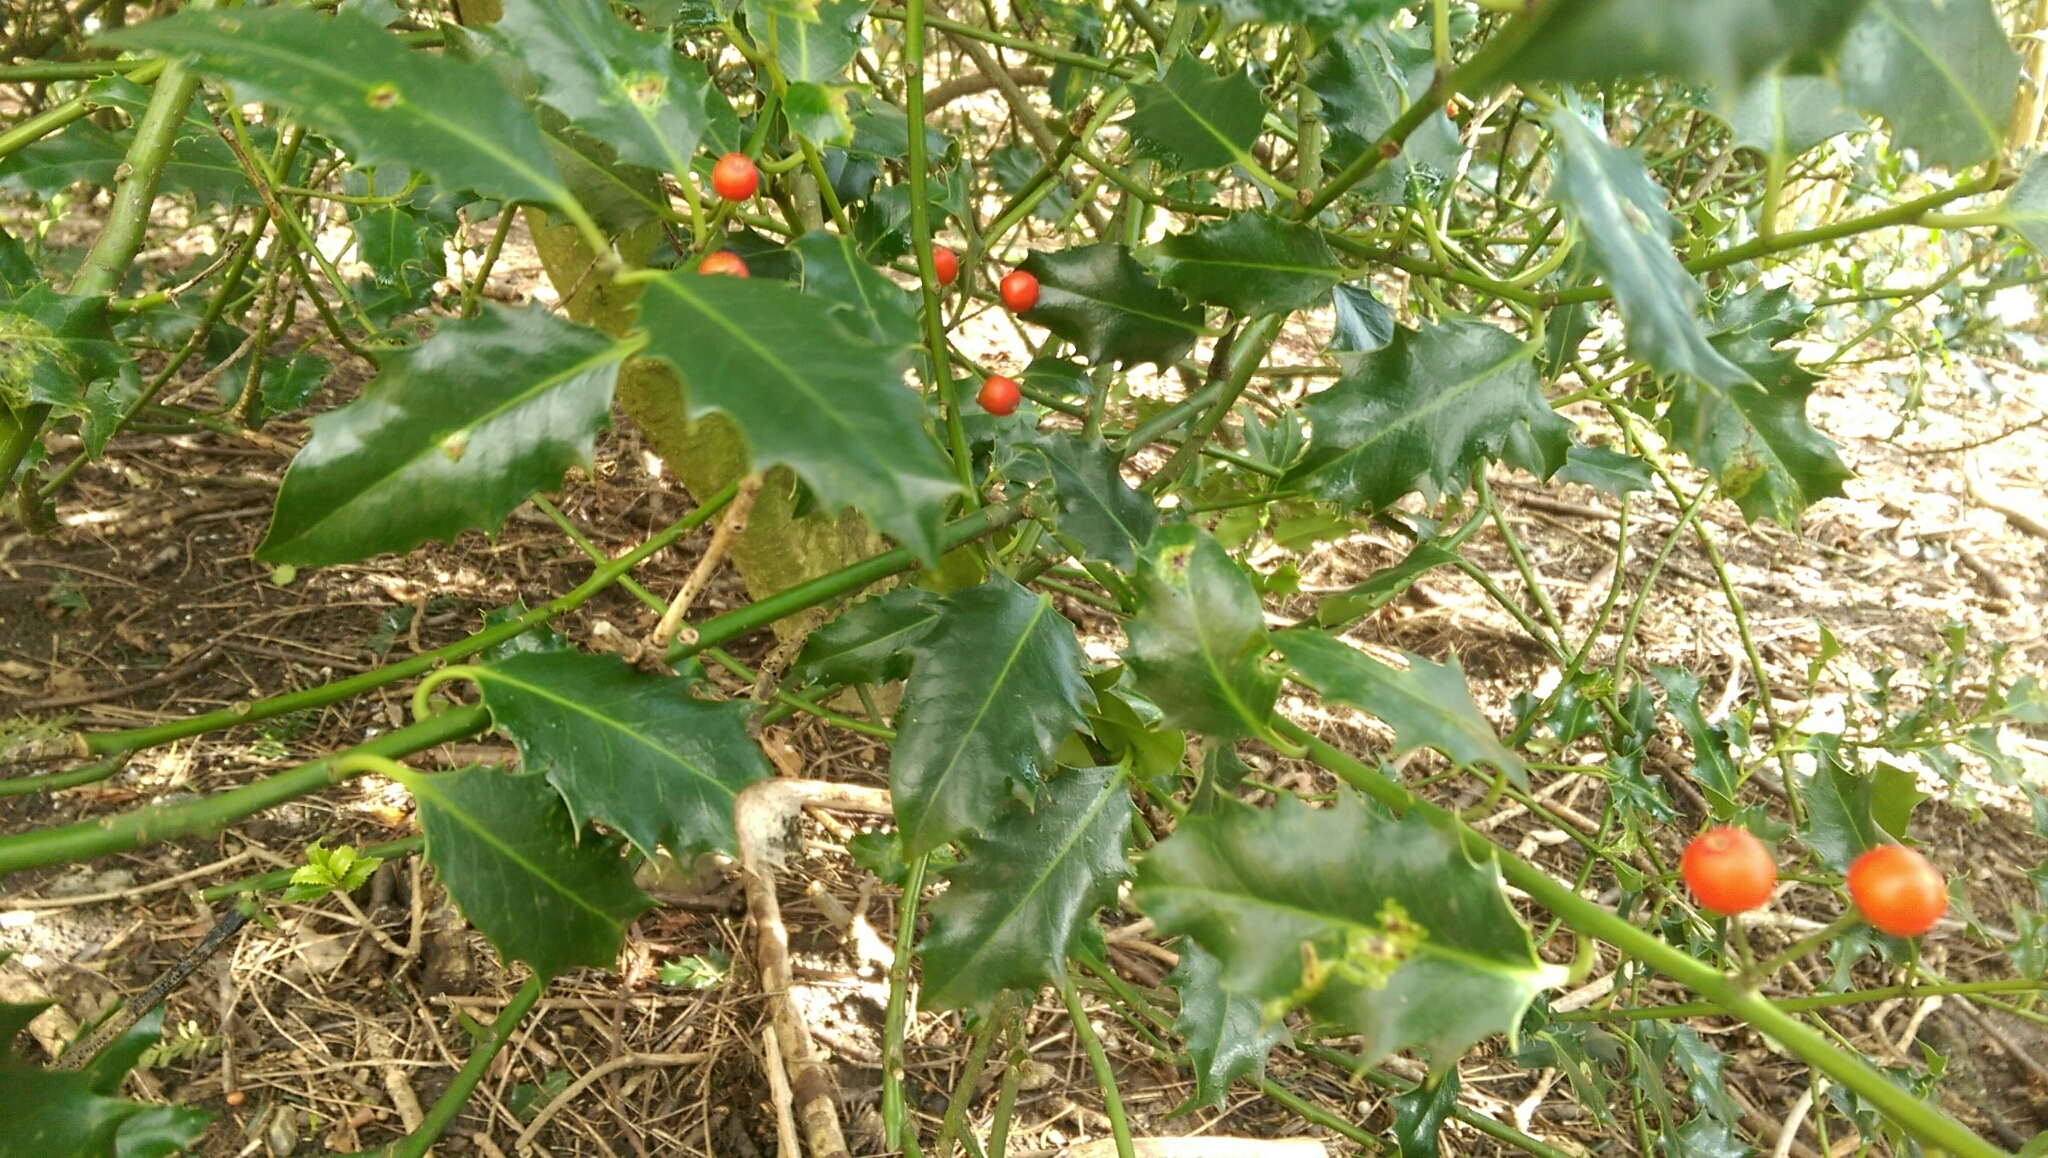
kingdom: Plantae
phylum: Tracheophyta
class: Magnoliopsida
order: Aquifoliales
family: Aquifoliaceae
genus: Ilex
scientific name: Ilex aquifolium
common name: English holly
